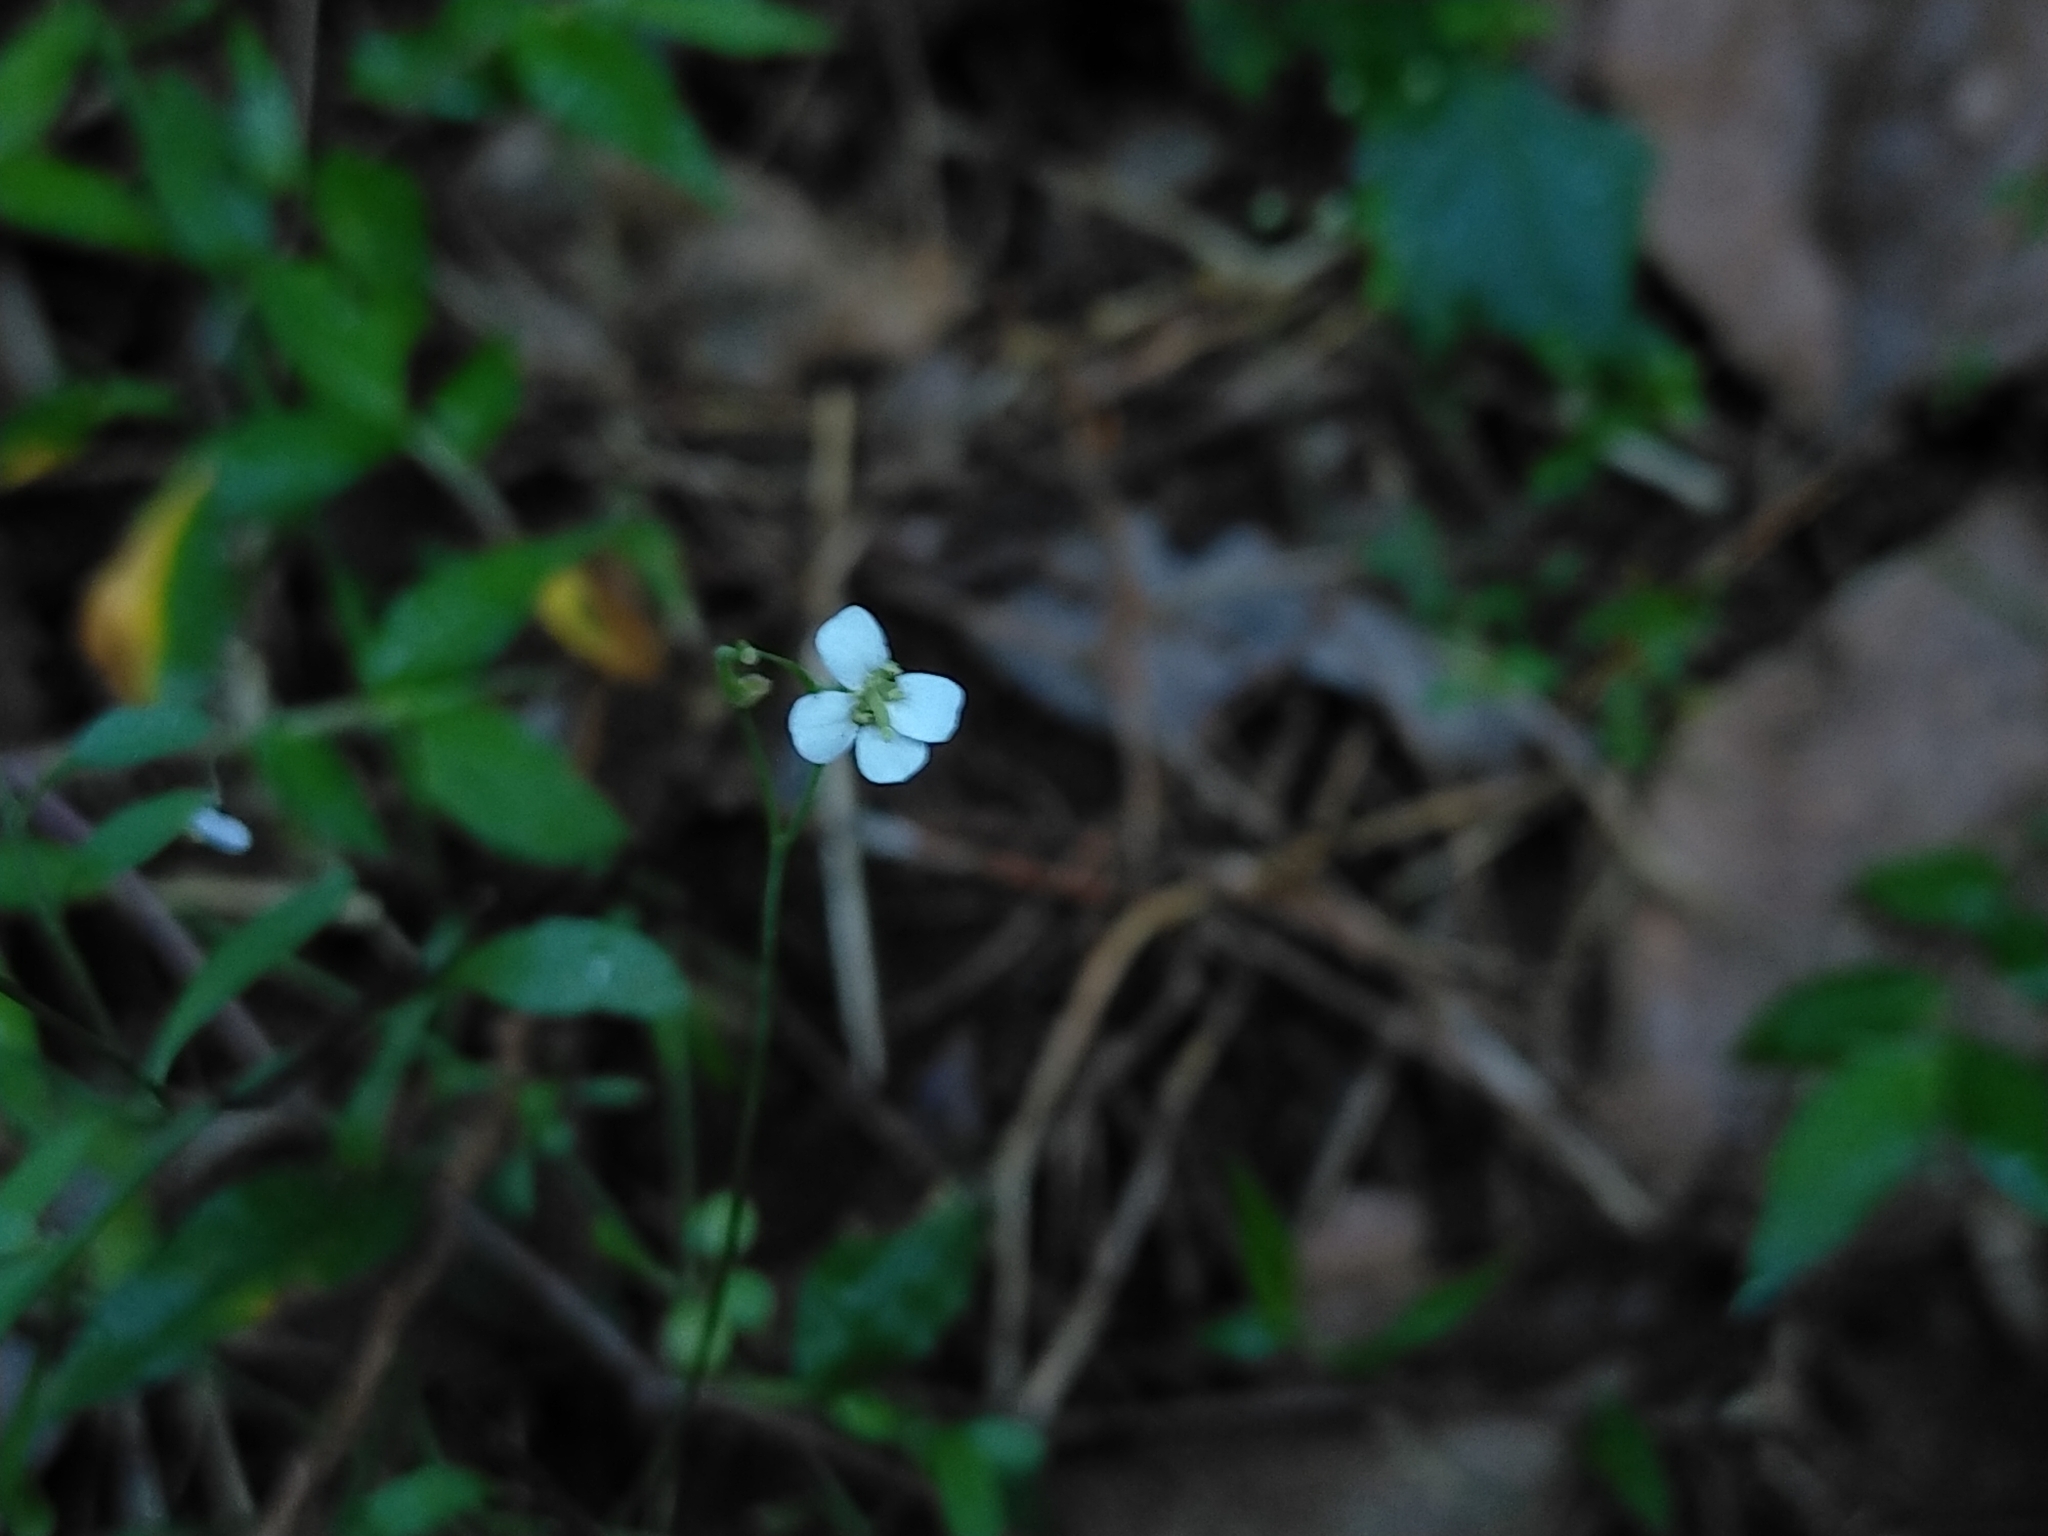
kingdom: Plantae
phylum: Tracheophyta
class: Magnoliopsida
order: Brassicales
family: Brassicaceae
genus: Arabidopsis
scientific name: Arabidopsis lyrata
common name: Lyrate rockcress
